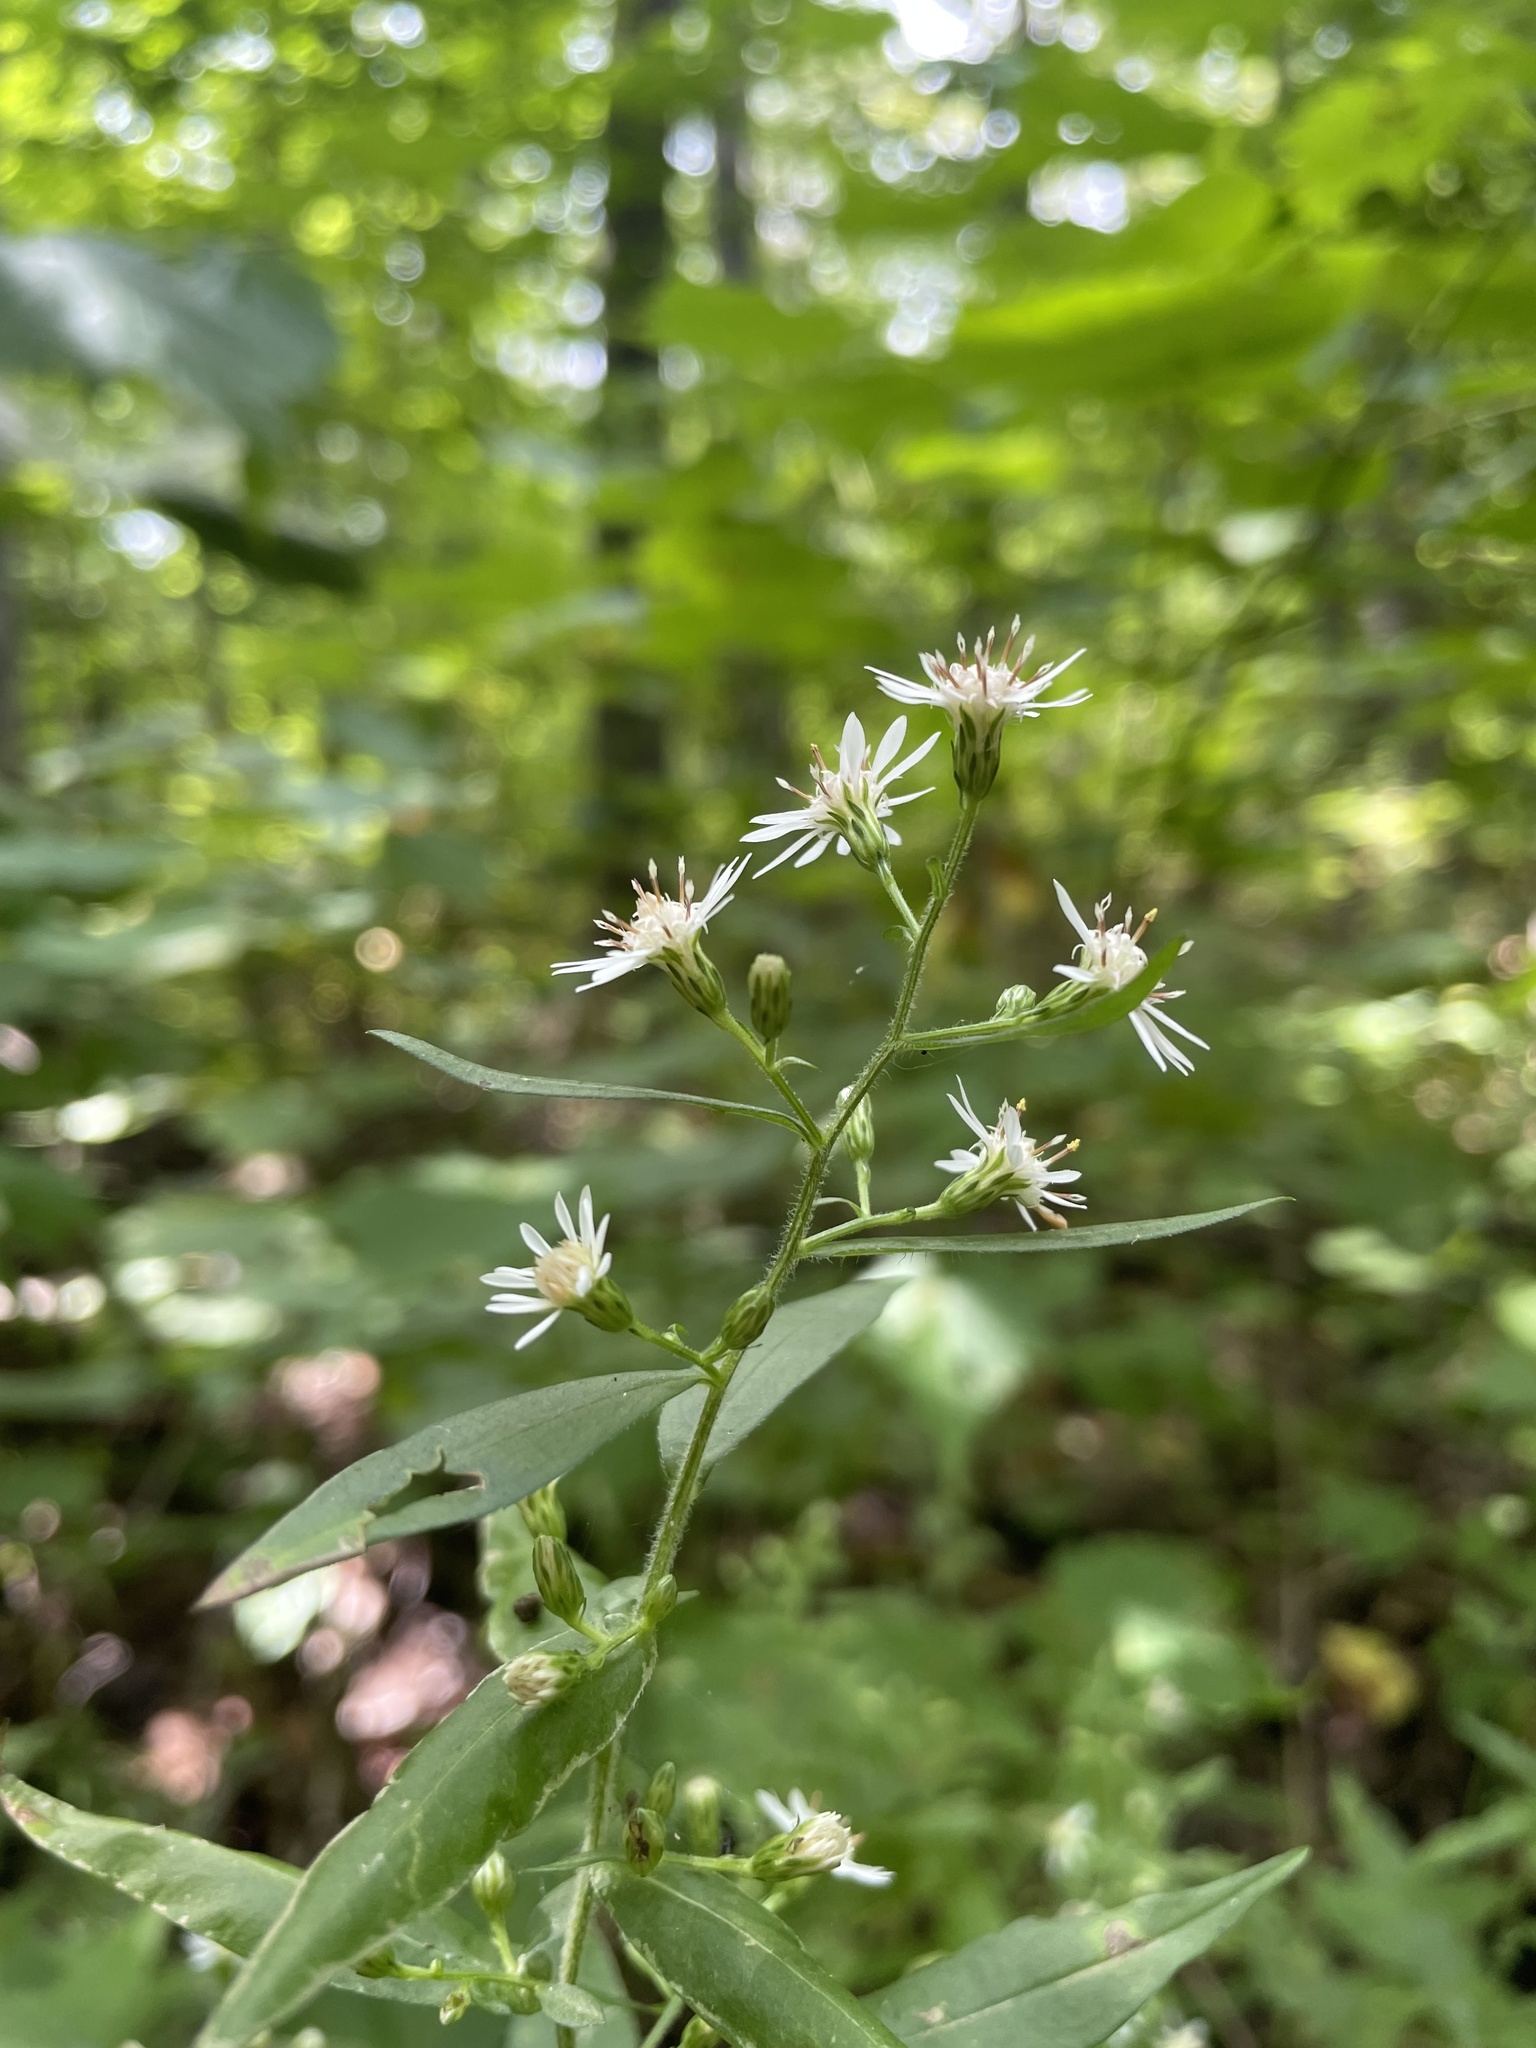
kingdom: Plantae
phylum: Tracheophyta
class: Magnoliopsida
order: Asterales
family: Asteraceae
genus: Symphyotrichum
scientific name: Symphyotrichum lateriflorum
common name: Calico aster
